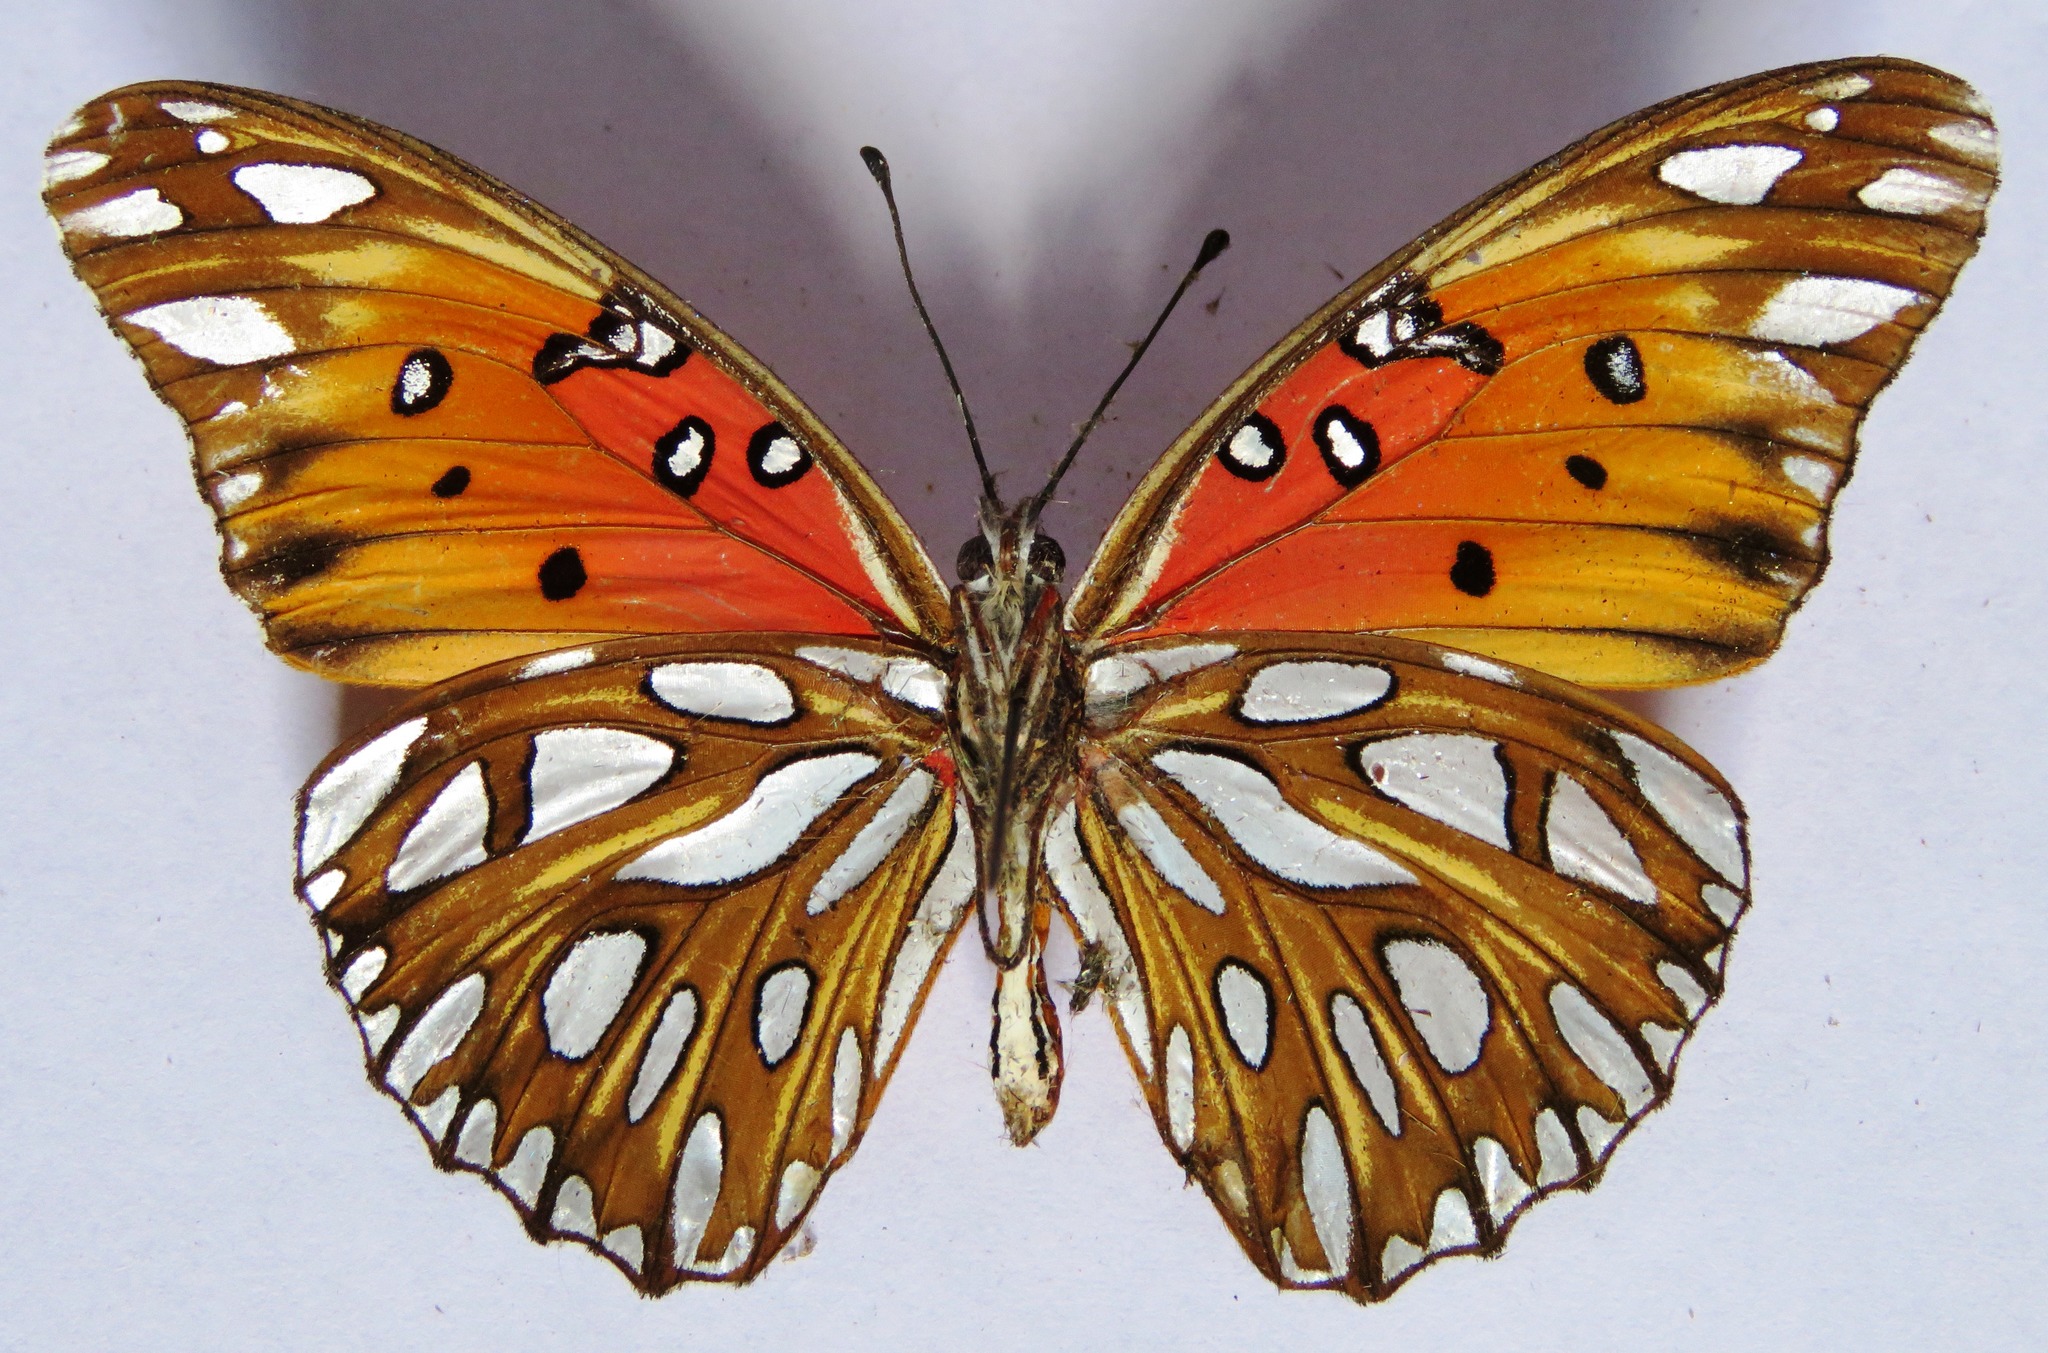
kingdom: Animalia
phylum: Arthropoda
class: Insecta
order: Lepidoptera
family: Nymphalidae
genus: Dione
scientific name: Dione vanillae
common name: Gulf fritillary
